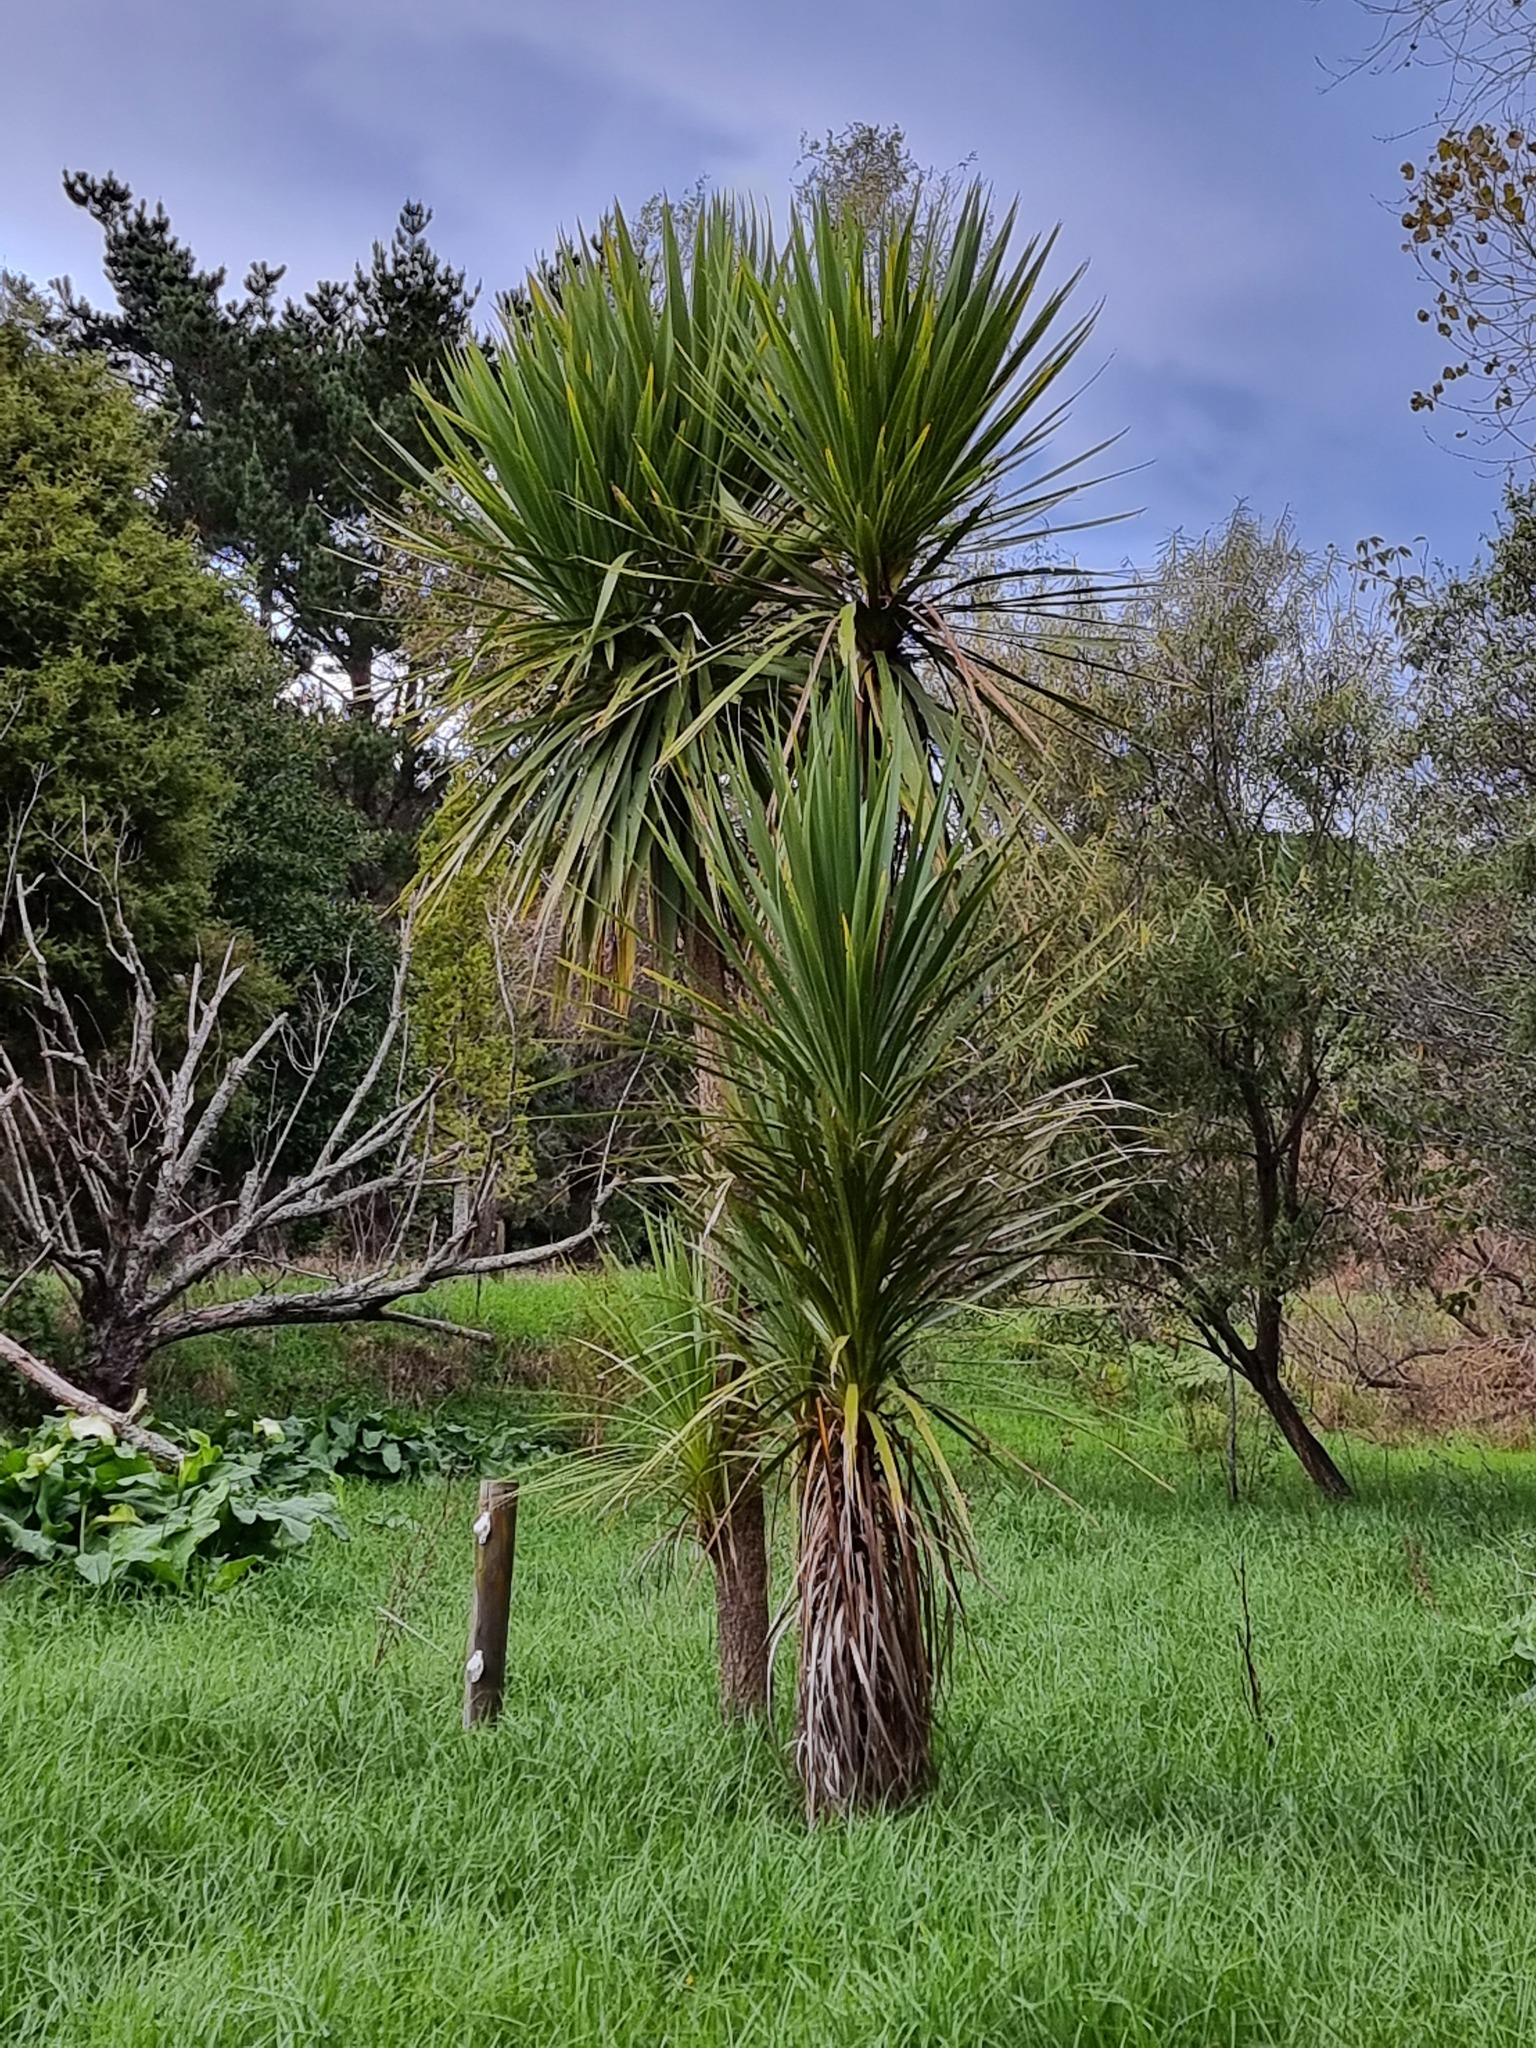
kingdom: Plantae
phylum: Tracheophyta
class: Liliopsida
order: Asparagales
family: Asparagaceae
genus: Cordyline
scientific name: Cordyline australis
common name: Cabbage-palm
